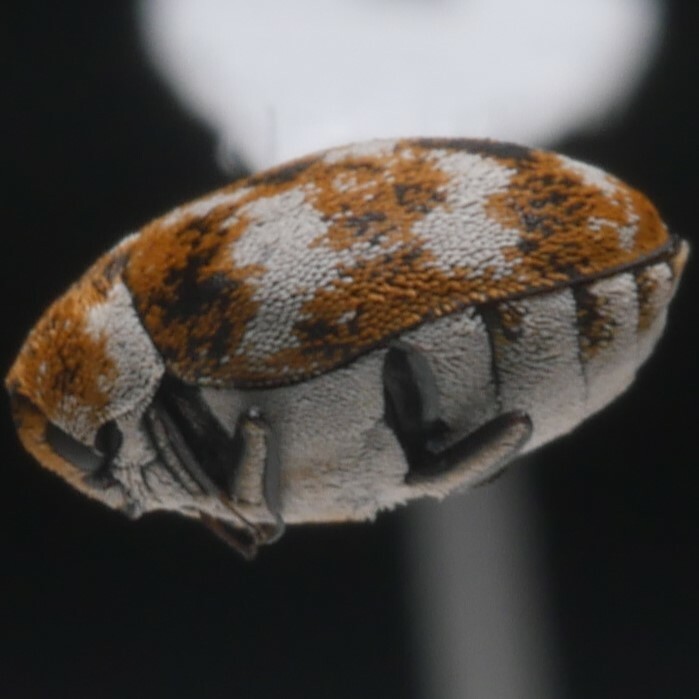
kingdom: Animalia
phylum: Arthropoda
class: Insecta
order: Coleoptera
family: Dermestidae
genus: Anthrenus
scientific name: Anthrenus verbasci
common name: Varied carpet beetle
